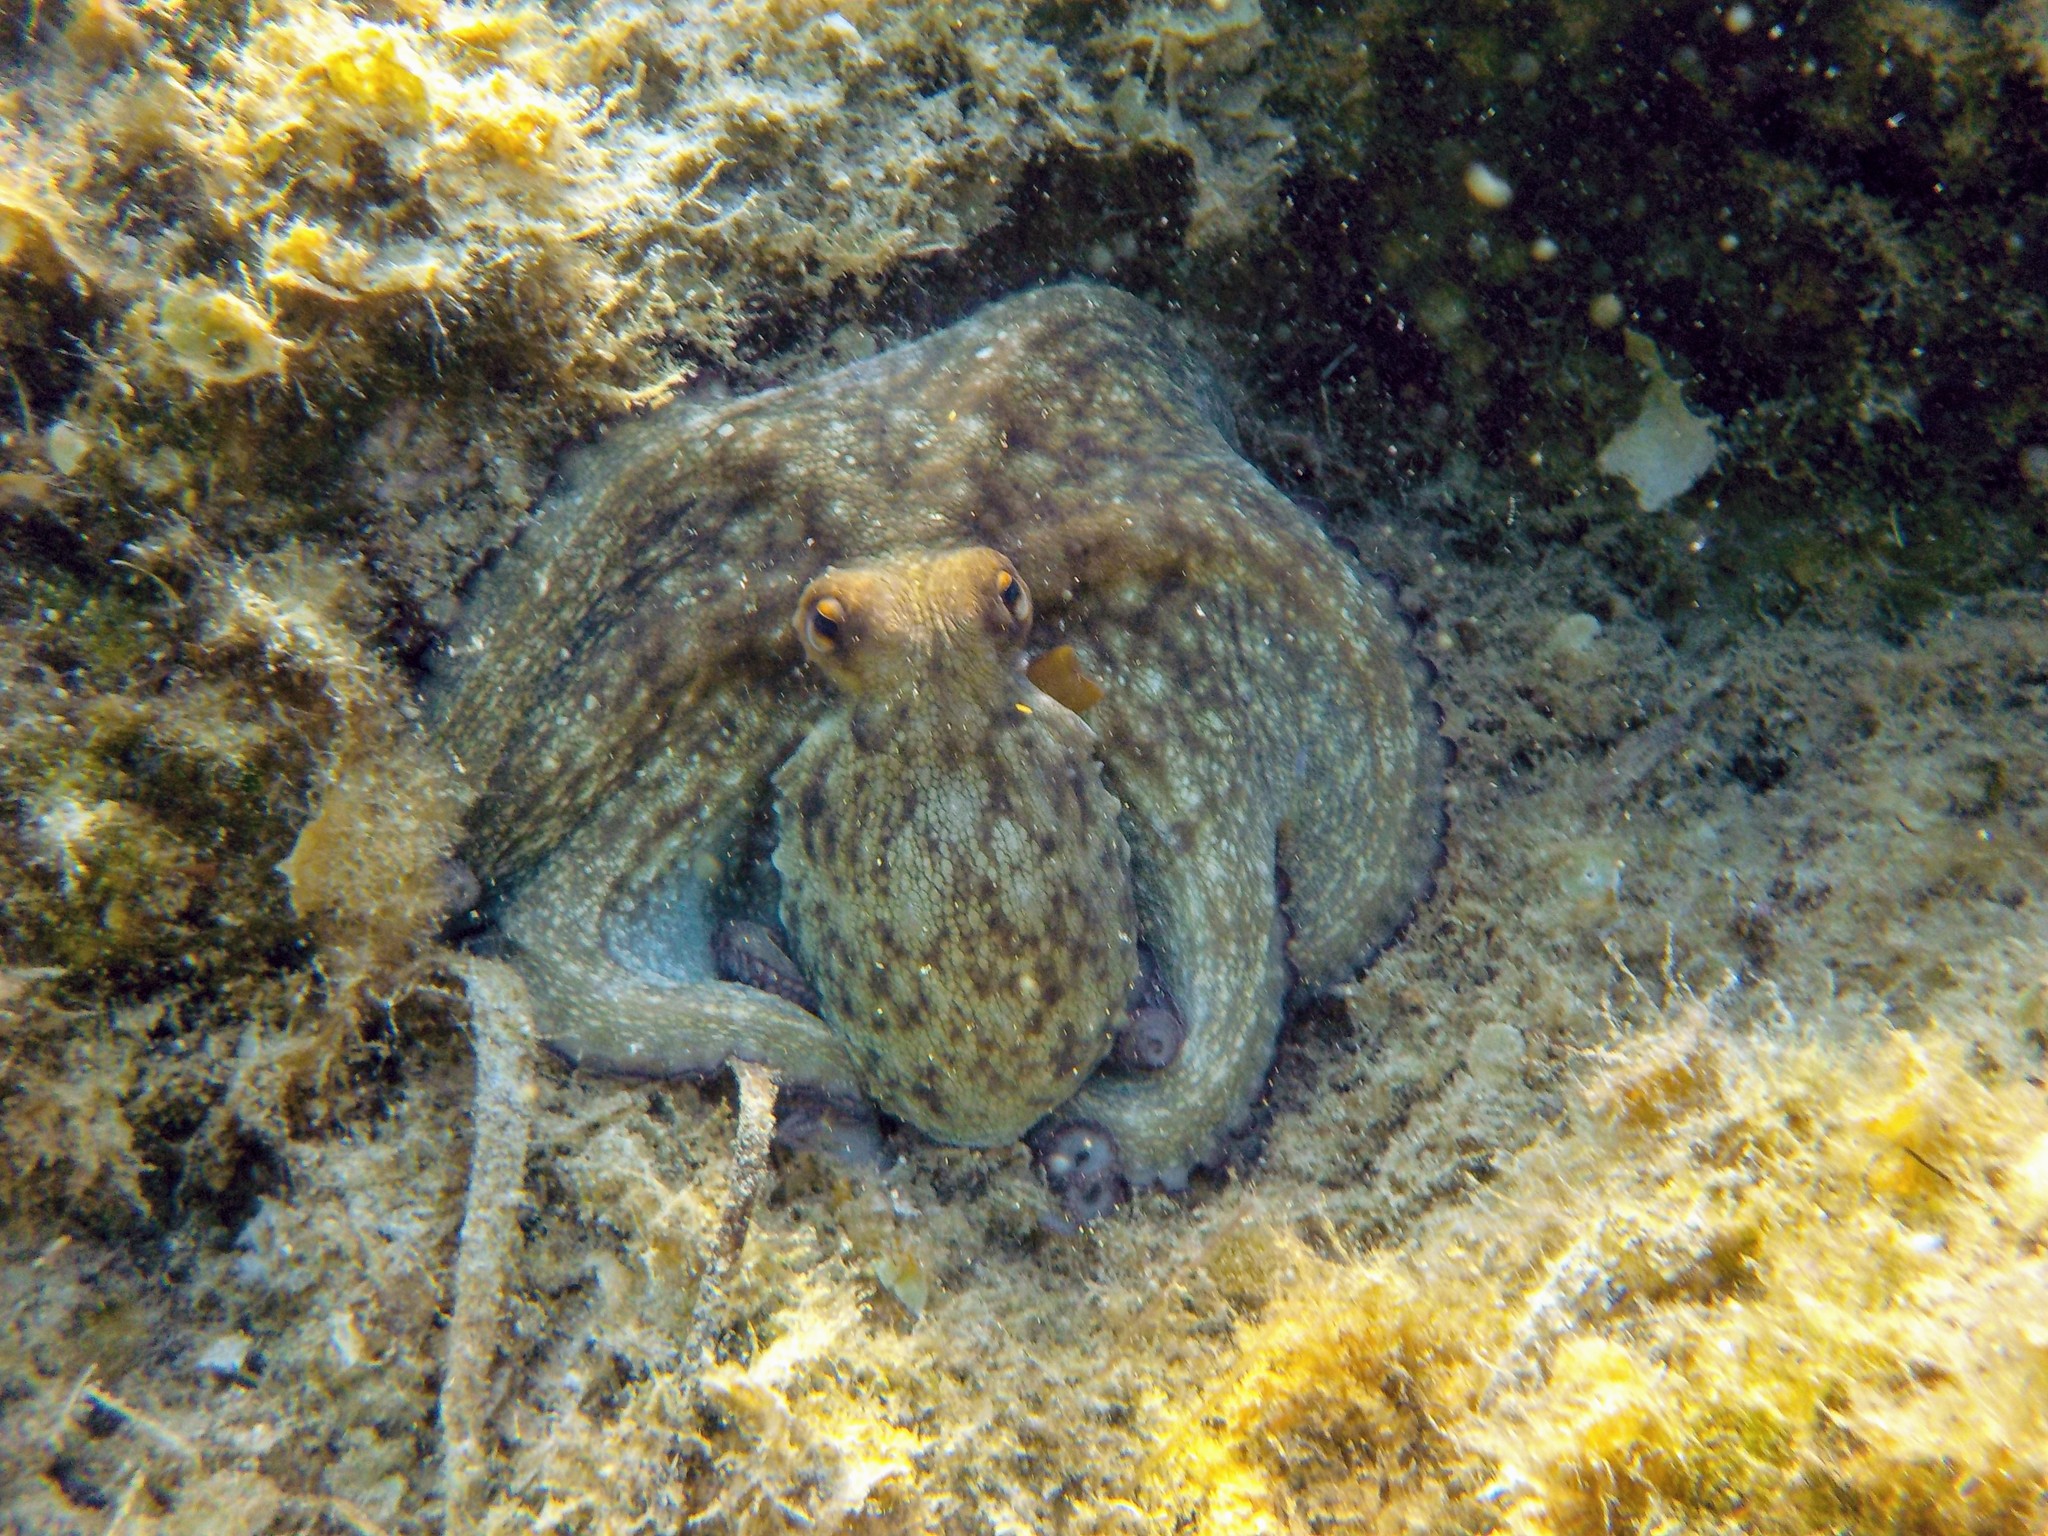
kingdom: Animalia
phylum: Mollusca
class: Cephalopoda
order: Octopoda
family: Octopodidae
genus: Octopus
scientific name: Octopus vulgaris
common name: Common octopus
